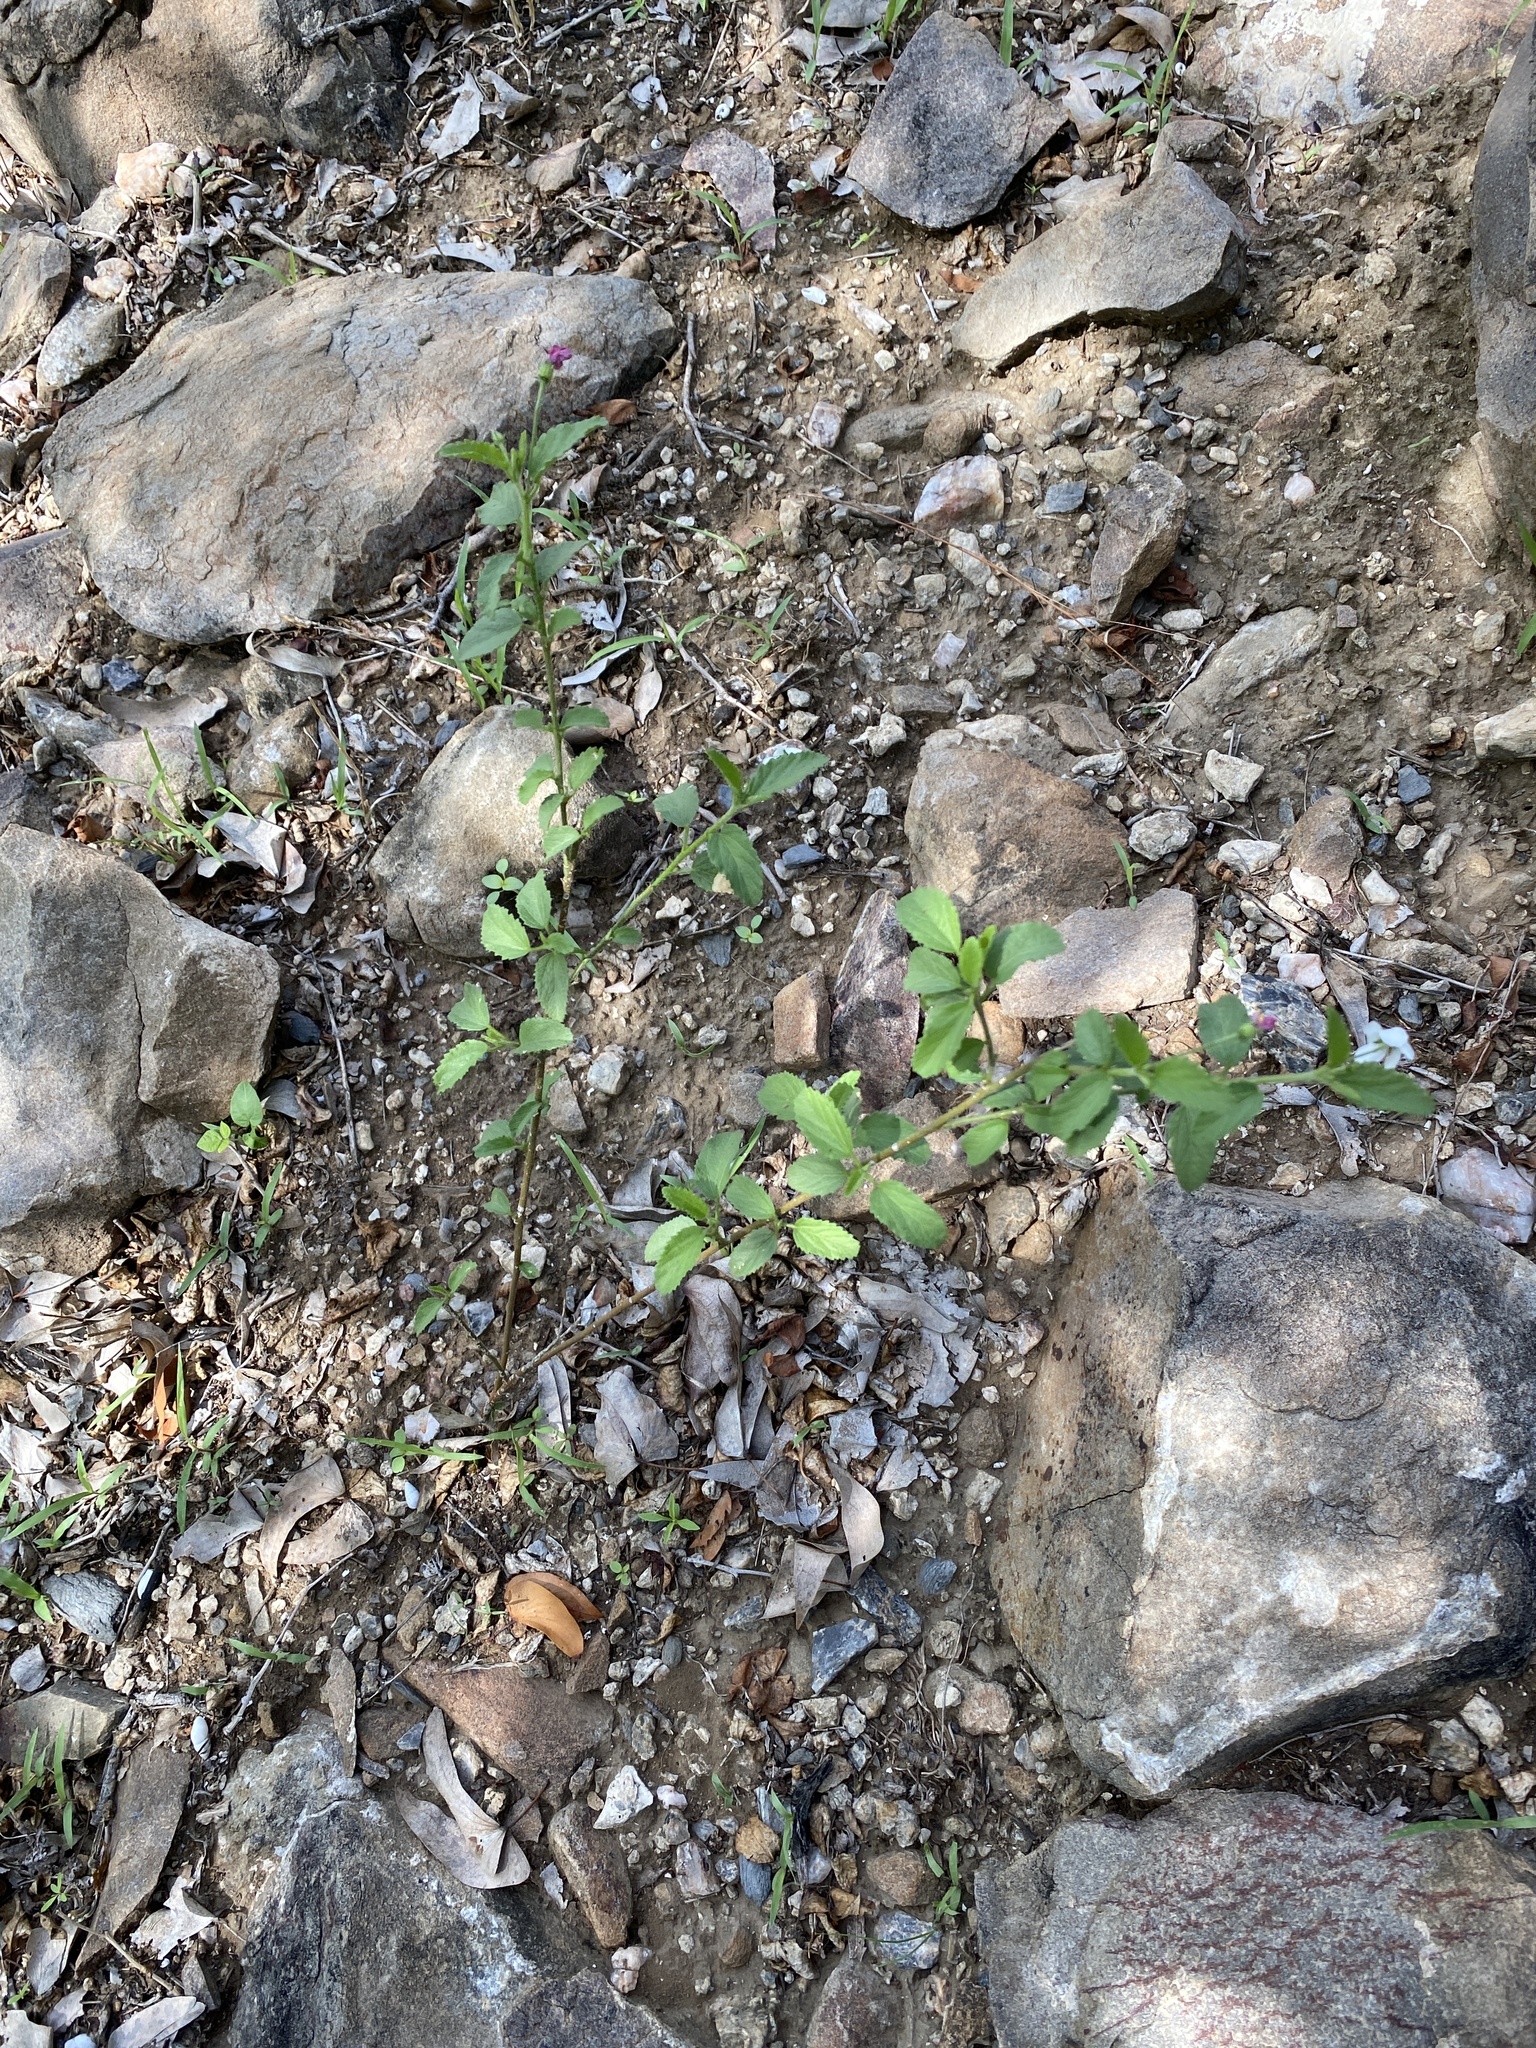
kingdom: Plantae
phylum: Tracheophyta
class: Magnoliopsida
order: Malvales
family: Malvaceae
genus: Hibiscus
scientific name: Hibiscus micranthus
